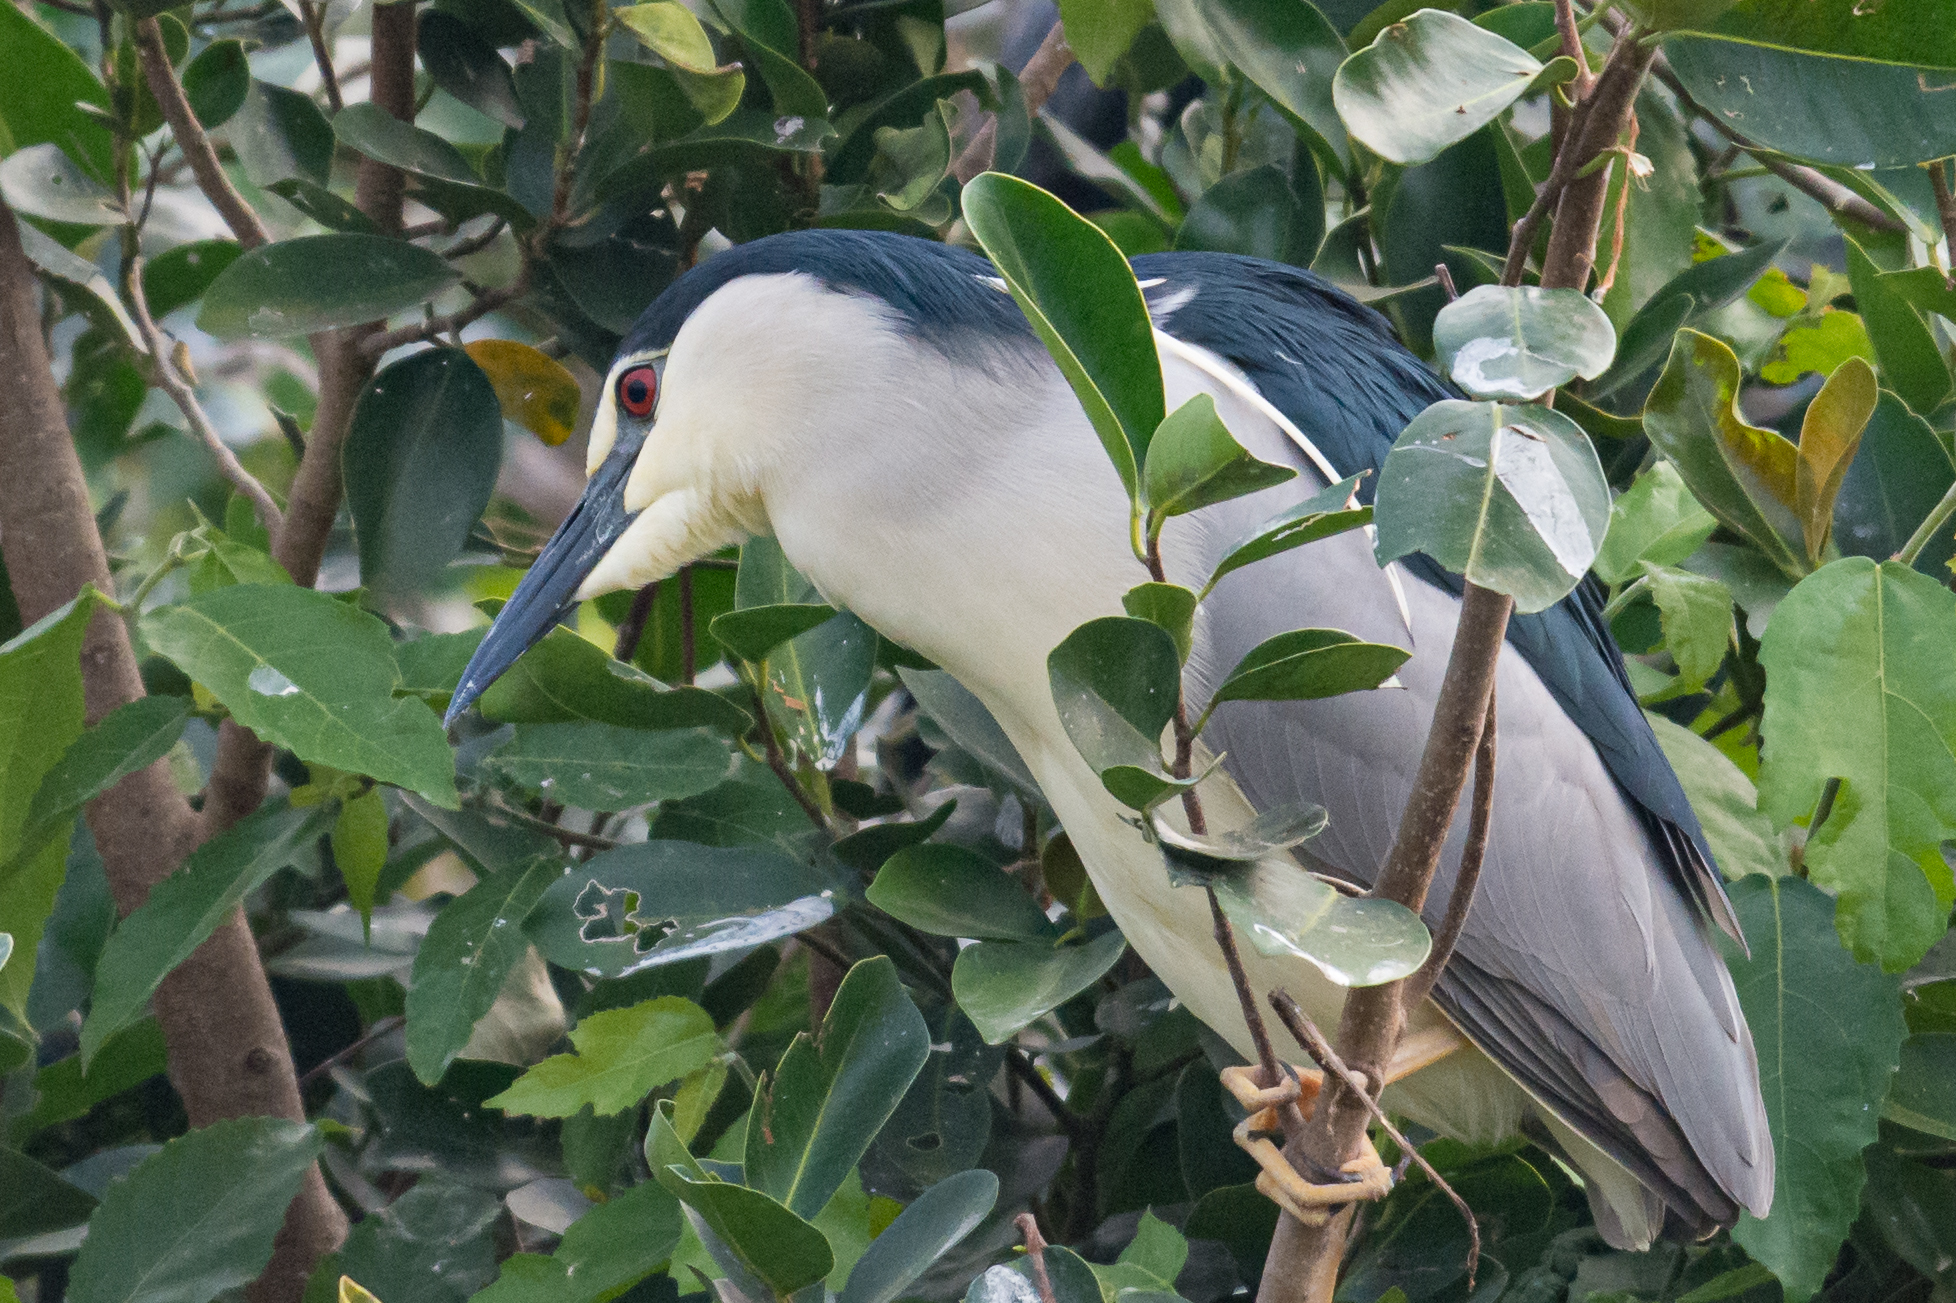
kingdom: Animalia
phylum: Chordata
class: Aves
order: Pelecaniformes
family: Ardeidae
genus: Nycticorax
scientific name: Nycticorax nycticorax
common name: Black-crowned night heron
